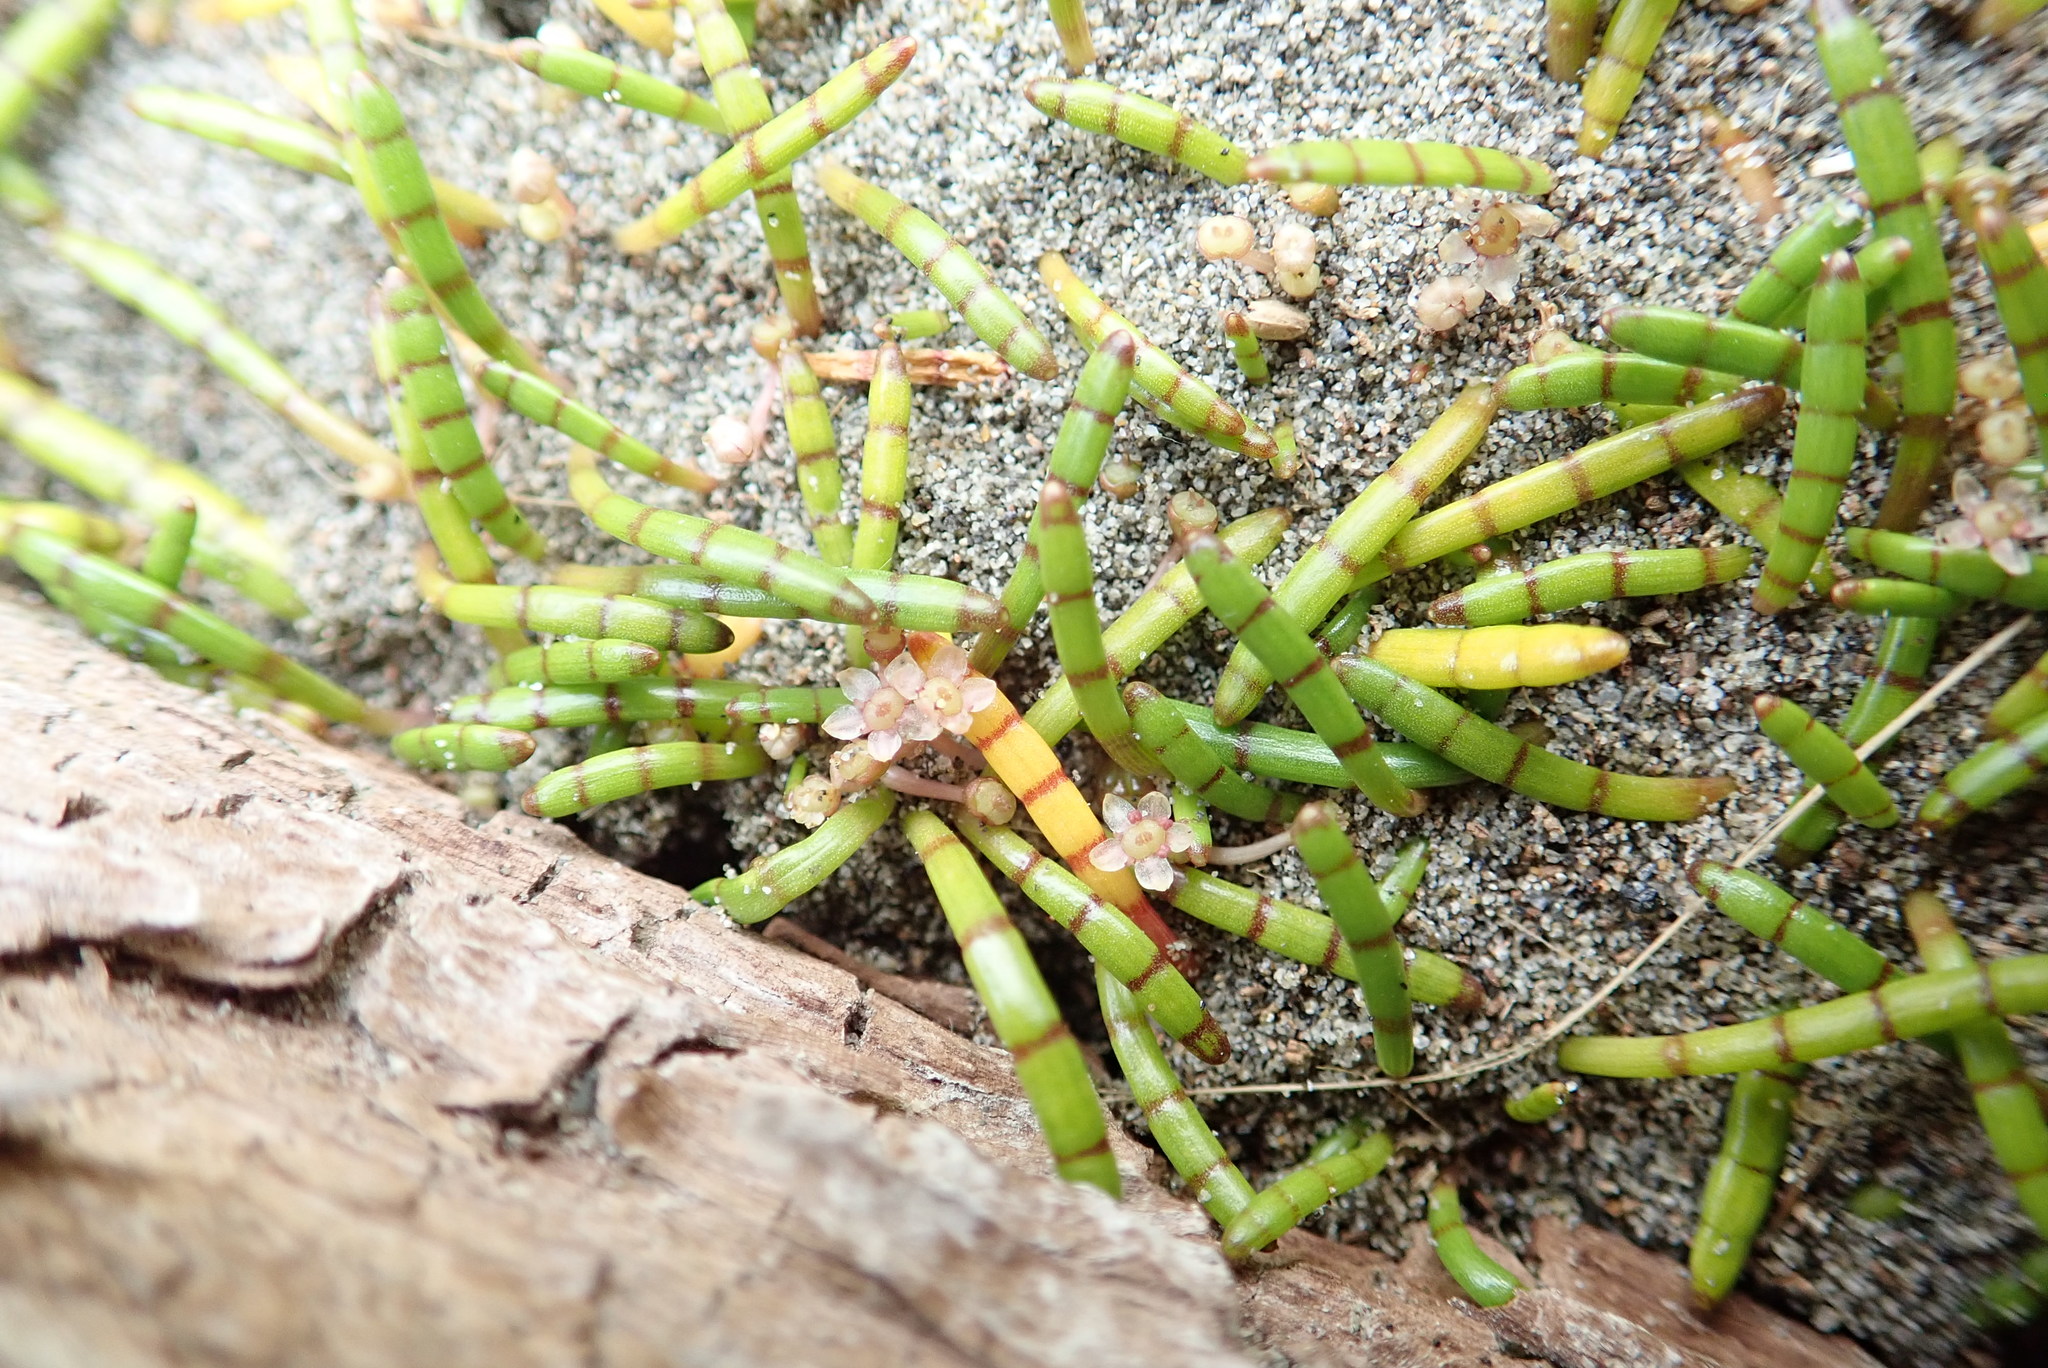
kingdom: Plantae
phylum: Tracheophyta
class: Magnoliopsida
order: Apiales
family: Apiaceae
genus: Lilaeopsis
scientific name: Lilaeopsis novae-zelandiae
